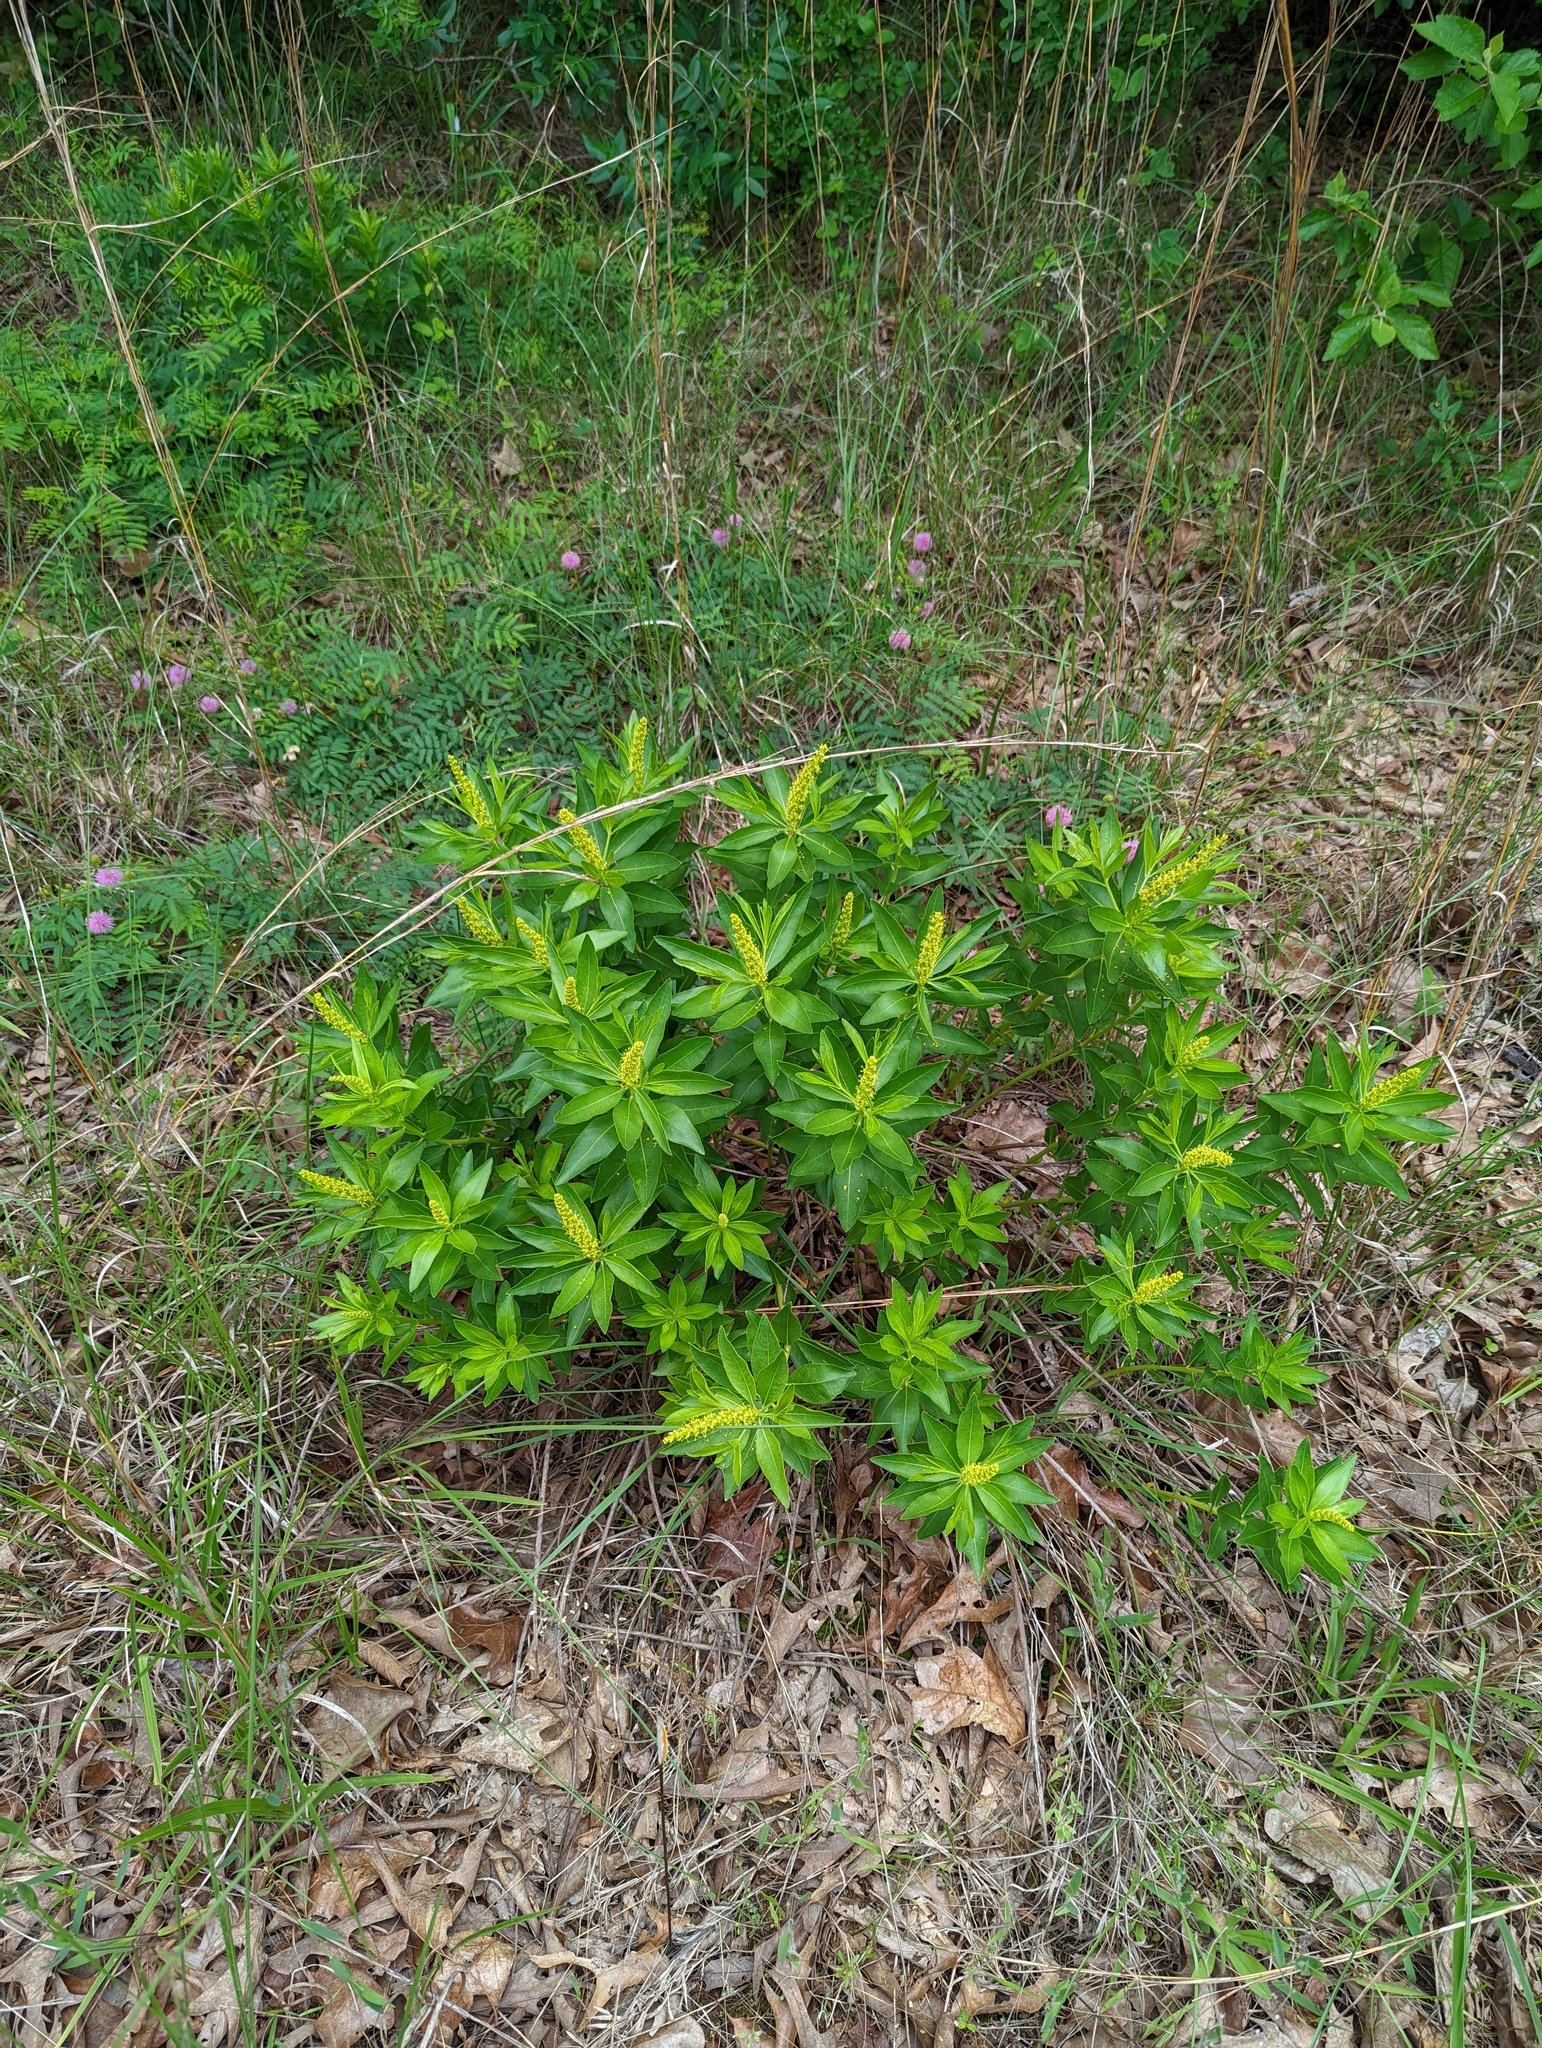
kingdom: Plantae
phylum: Tracheophyta
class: Magnoliopsida
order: Malpighiales
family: Euphorbiaceae
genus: Stillingia
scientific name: Stillingia sylvatica
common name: Queen's-delight
